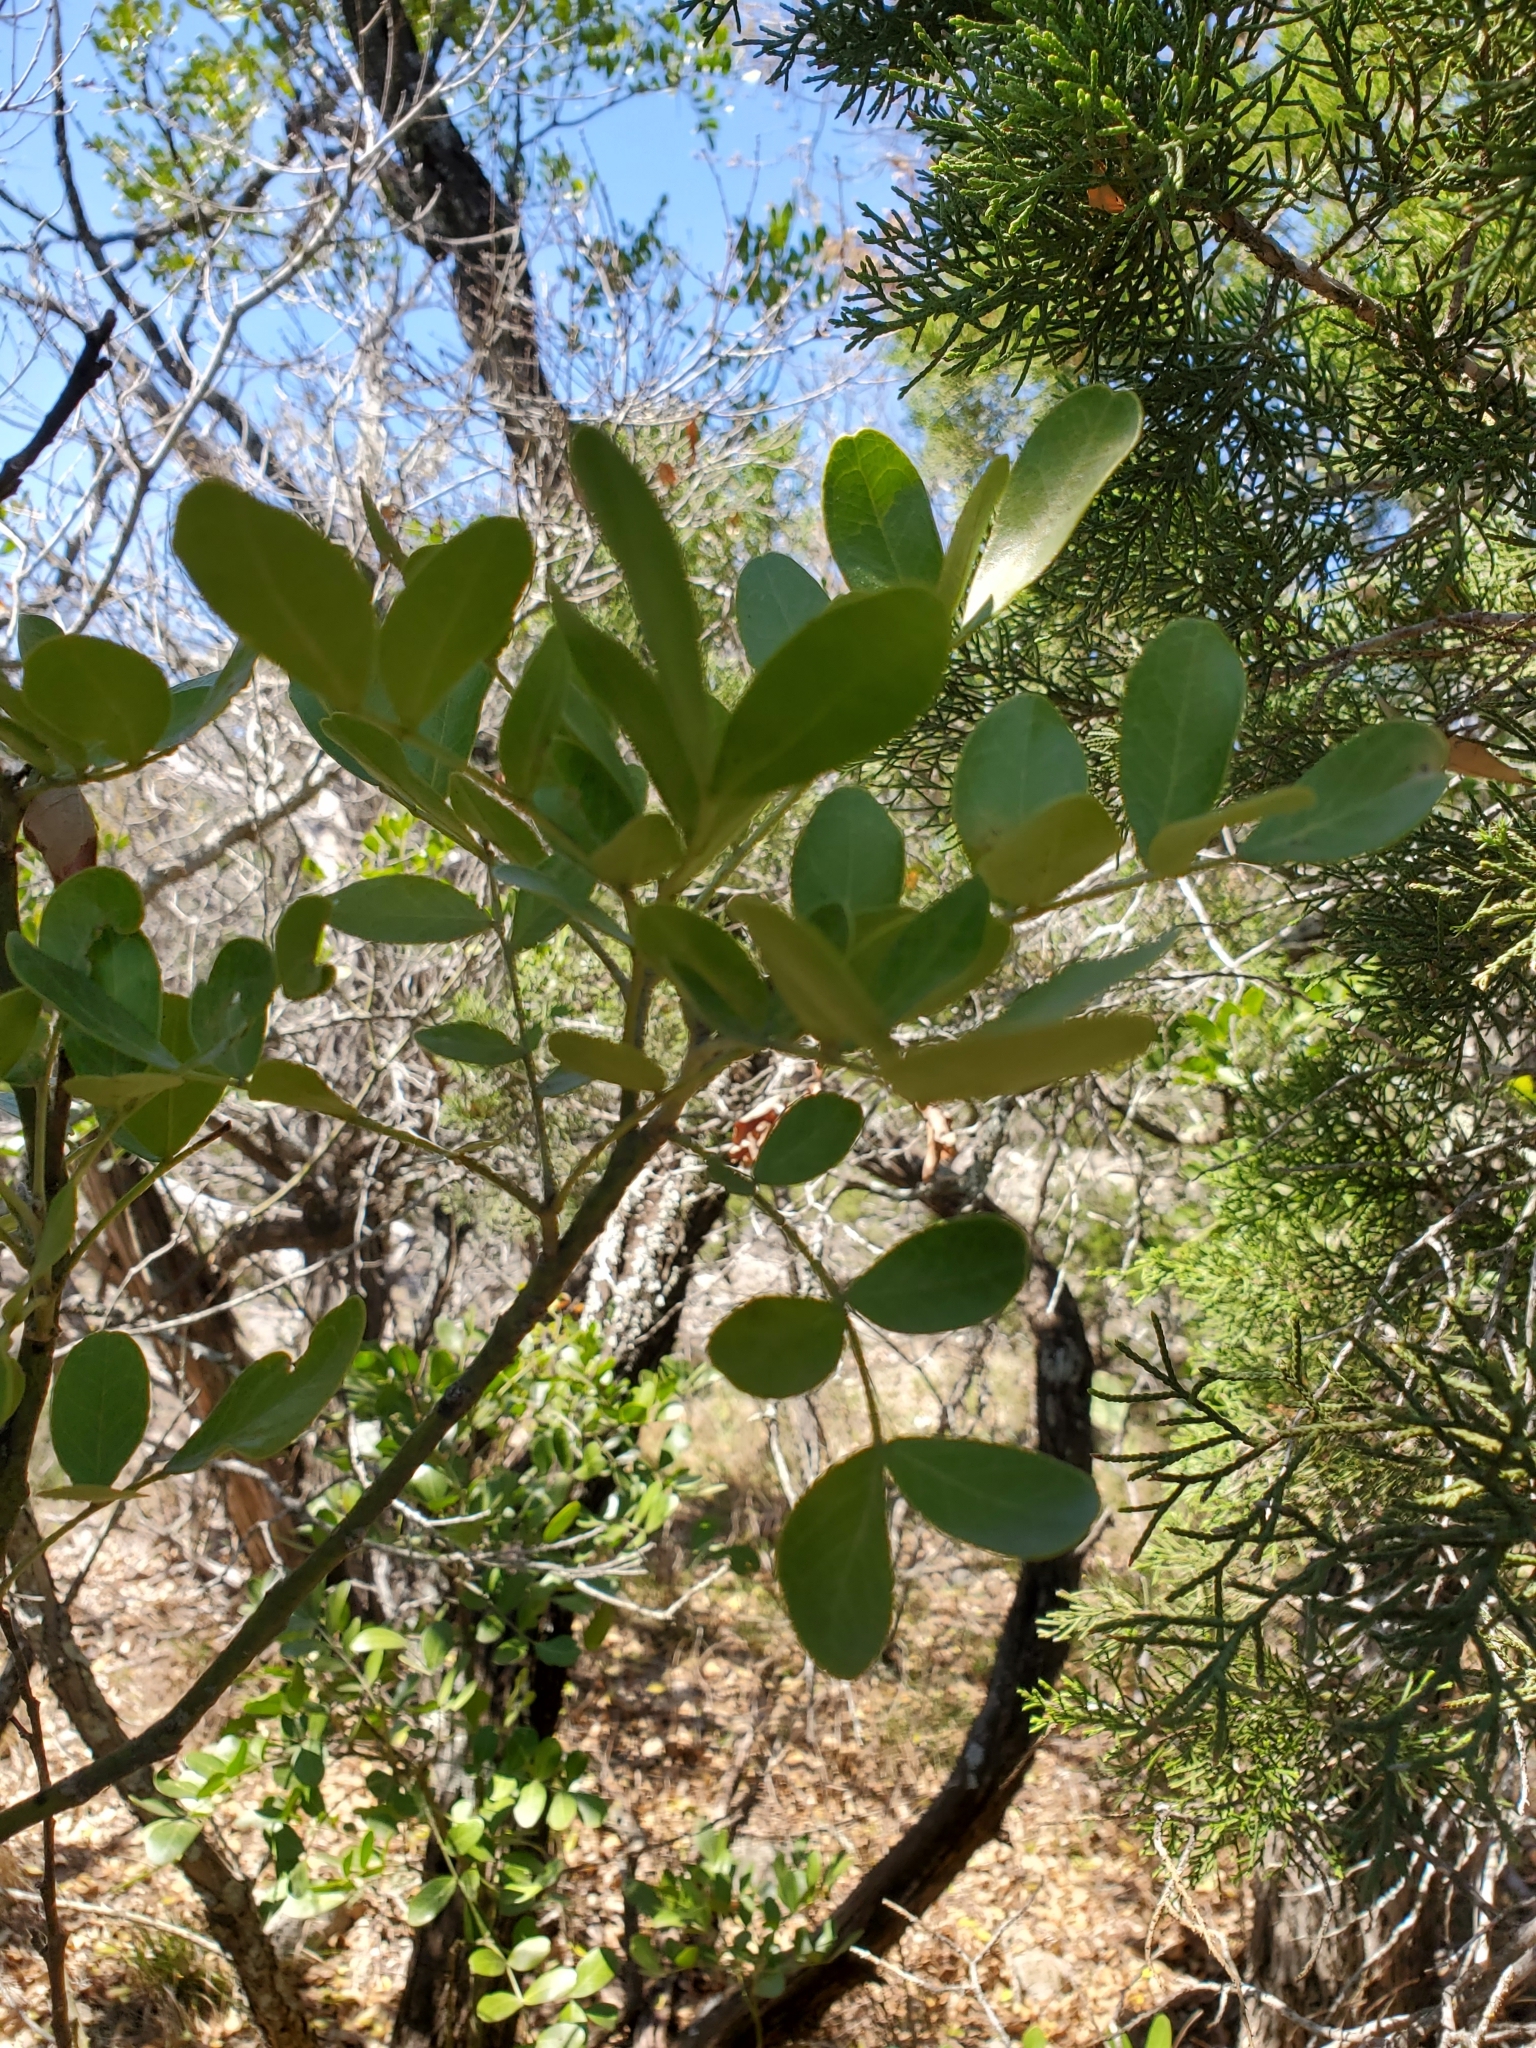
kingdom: Plantae
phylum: Tracheophyta
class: Magnoliopsida
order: Fabales
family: Fabaceae
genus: Dermatophyllum
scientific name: Dermatophyllum secundiflorum
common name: Texas-mountain-laurel
